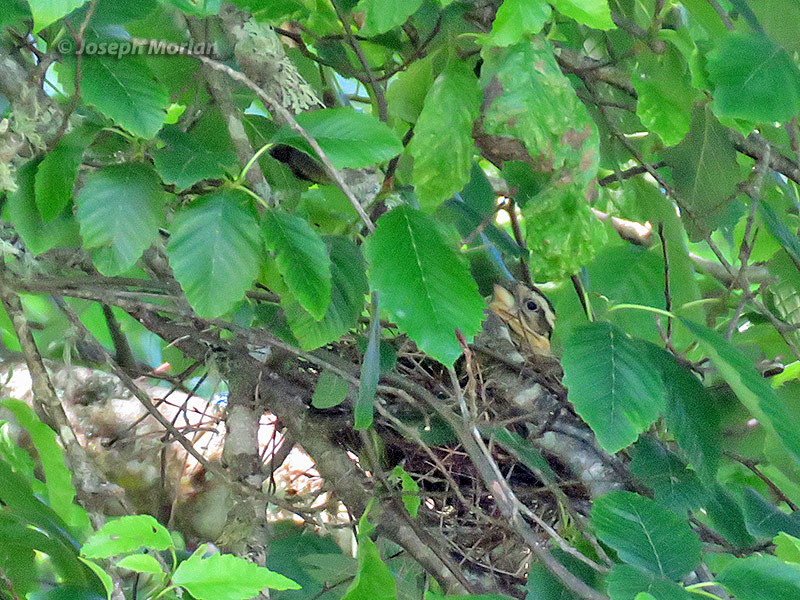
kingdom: Animalia
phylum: Chordata
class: Aves
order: Passeriformes
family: Cardinalidae
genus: Pheucticus
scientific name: Pheucticus melanocephalus
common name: Black-headed grosbeak
